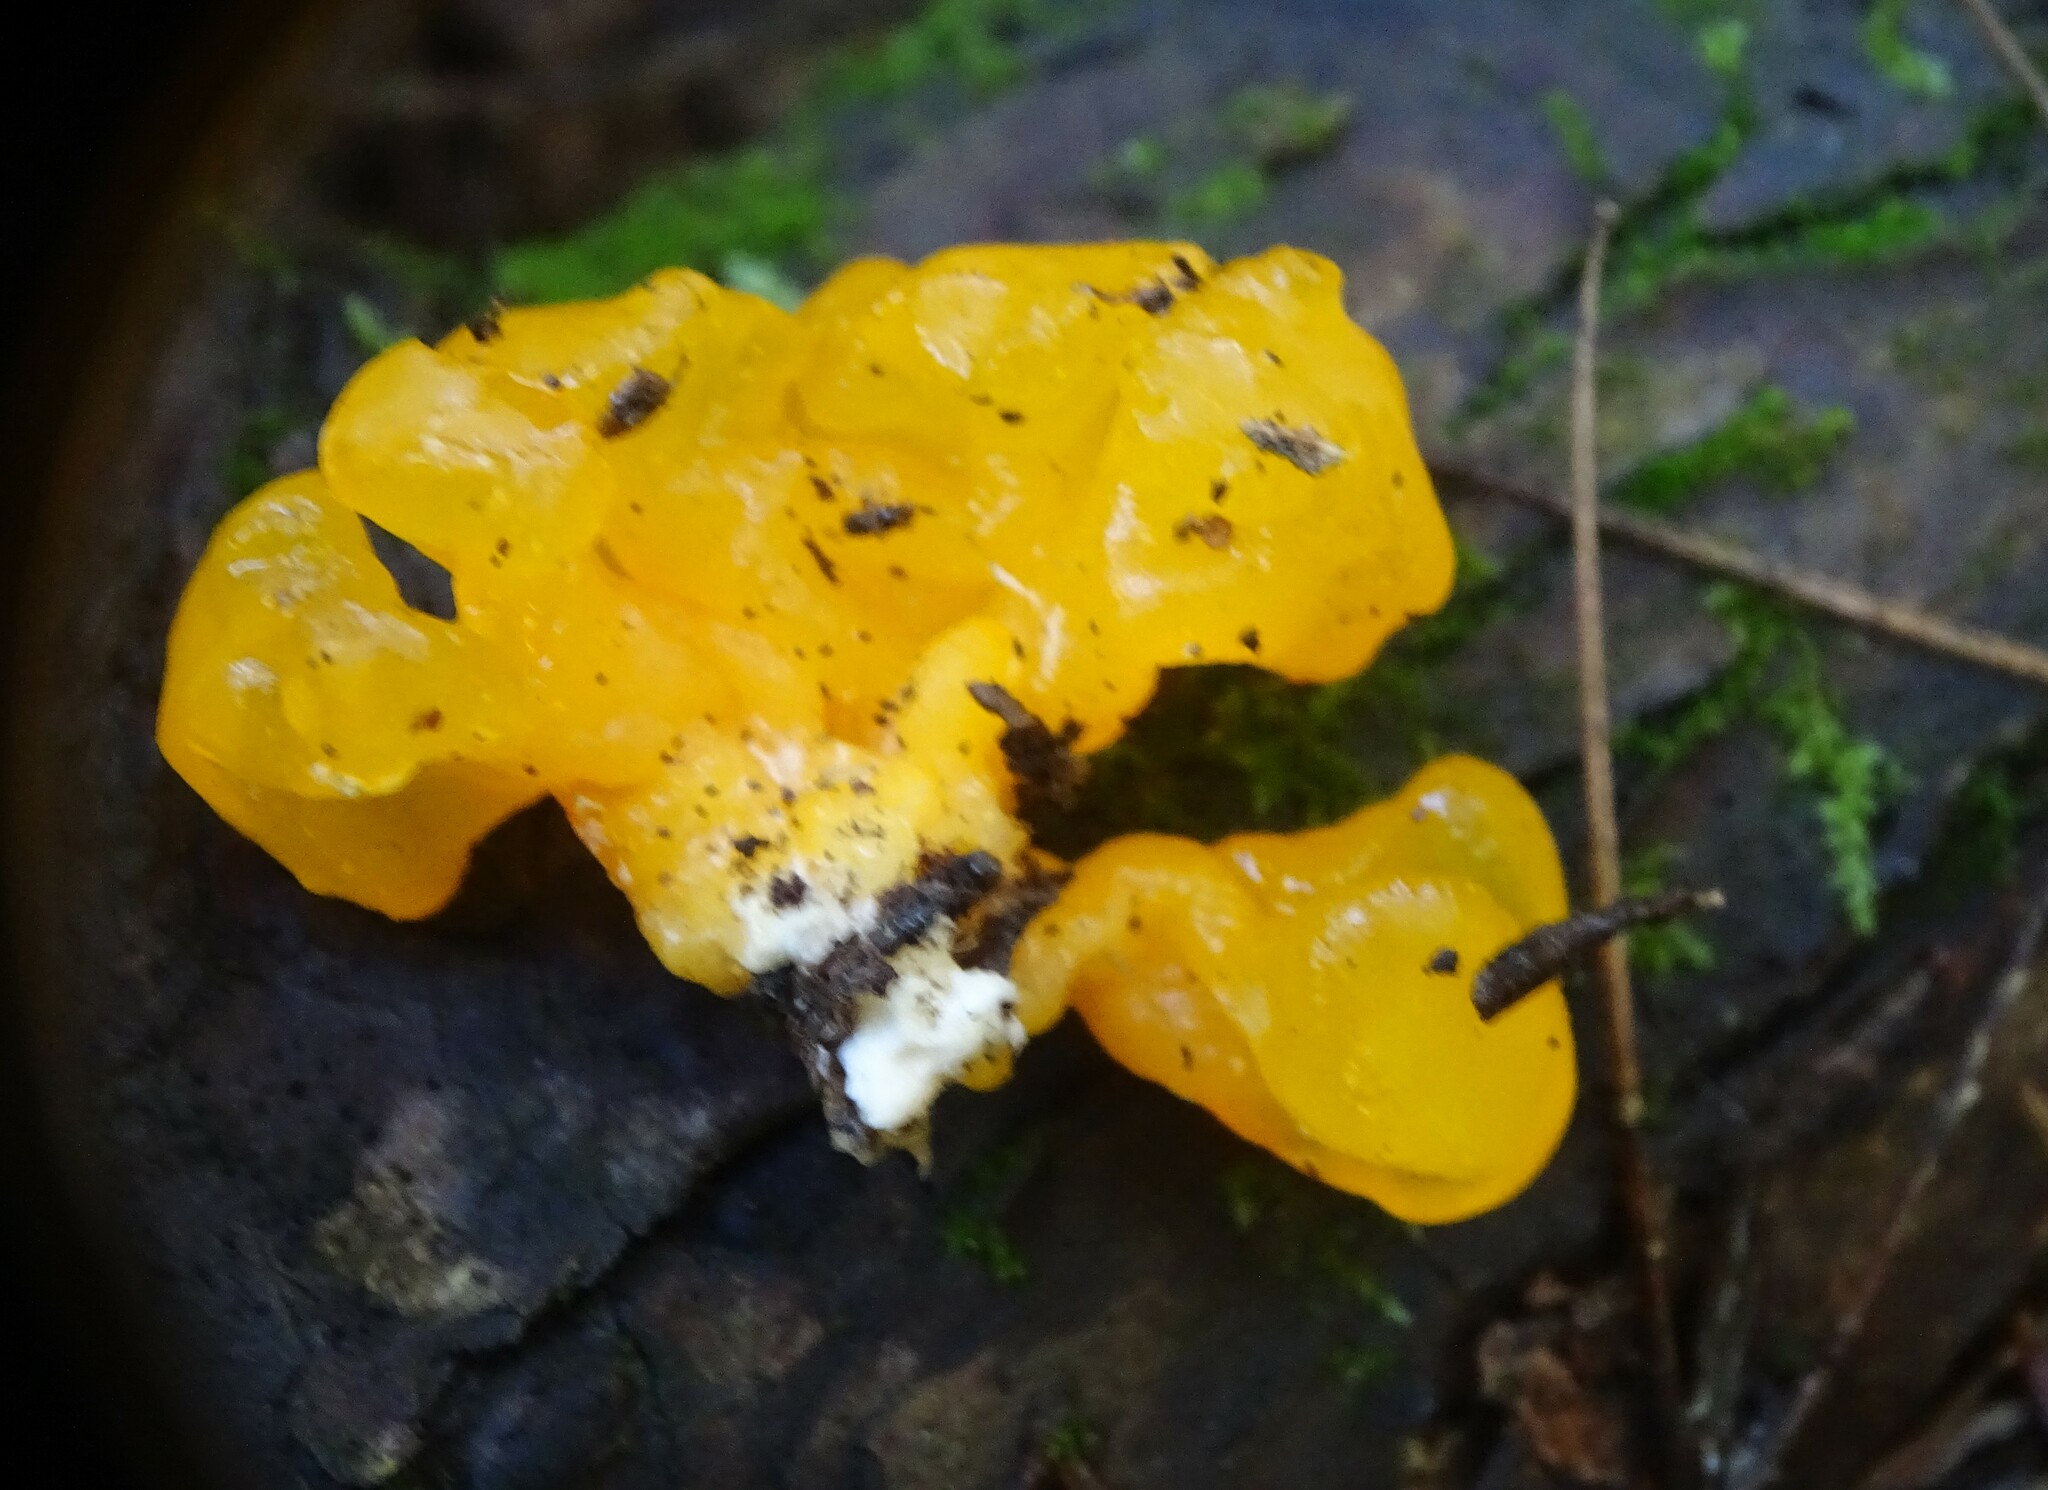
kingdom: Fungi
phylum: Basidiomycota
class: Dacrymycetes
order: Dacrymycetales
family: Dacrymycetaceae
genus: Dacrymyces
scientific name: Dacrymyces chrysospermus
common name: Orange jelly spot
